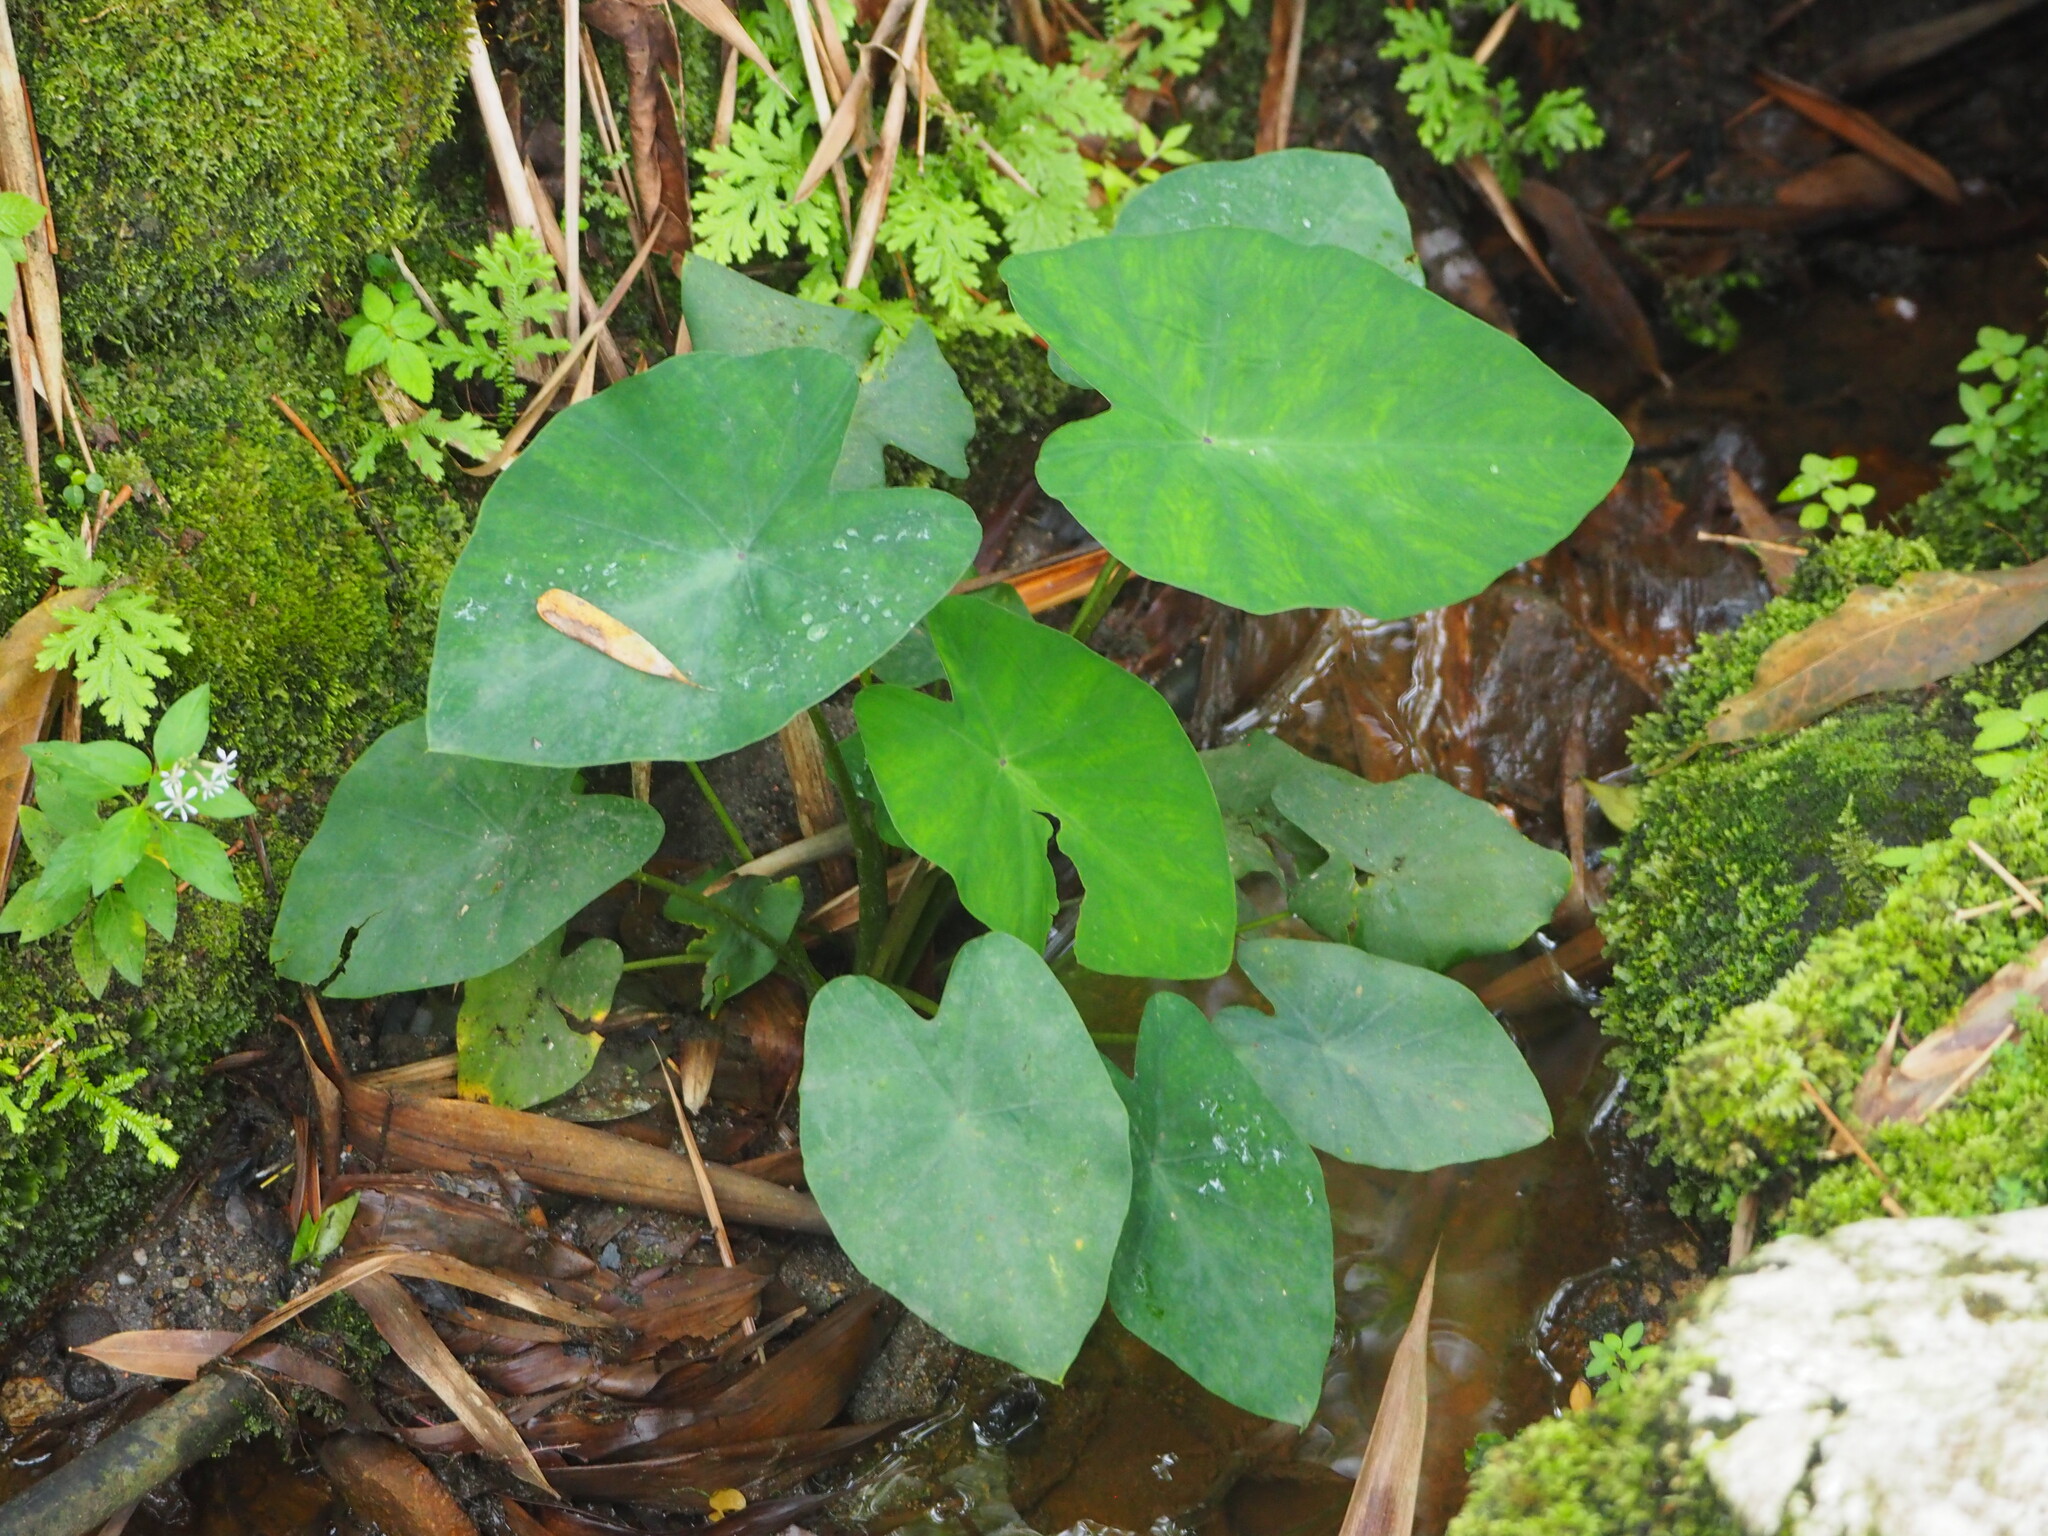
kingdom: Plantae
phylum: Tracheophyta
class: Liliopsida
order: Alismatales
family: Araceae
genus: Colocasia
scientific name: Colocasia esculenta
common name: Taro
